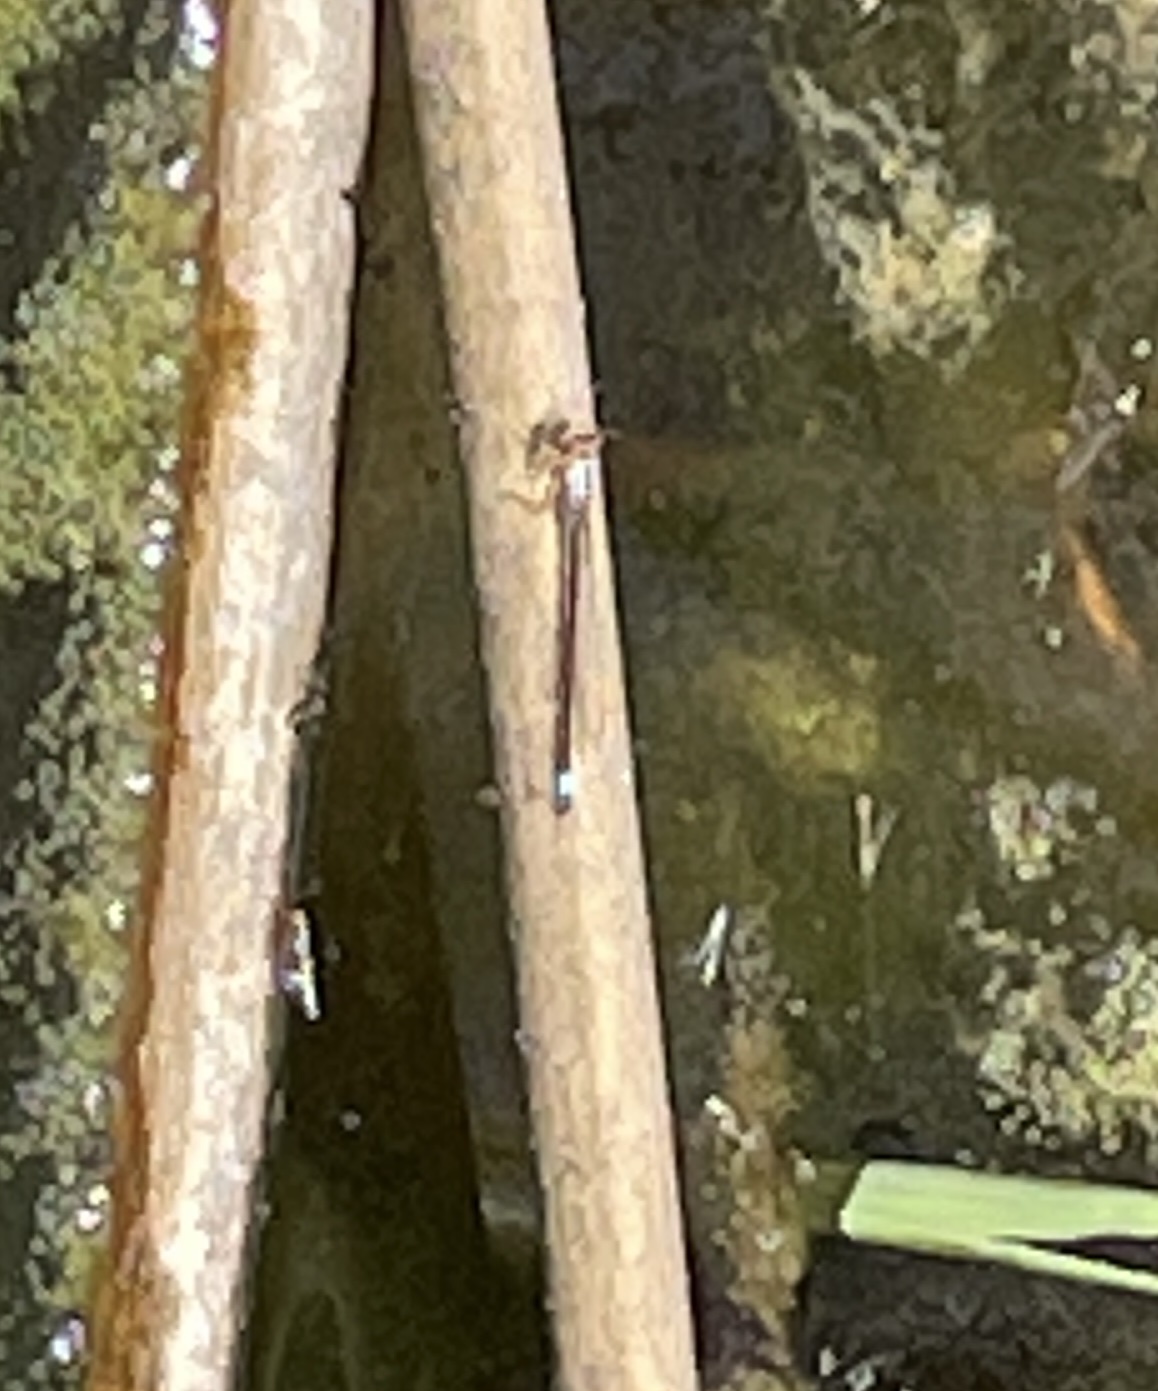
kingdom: Animalia
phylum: Arthropoda
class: Insecta
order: Odonata
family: Coenagrionidae
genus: Ischnura
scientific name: Ischnura cervula
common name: Pacific forktail
